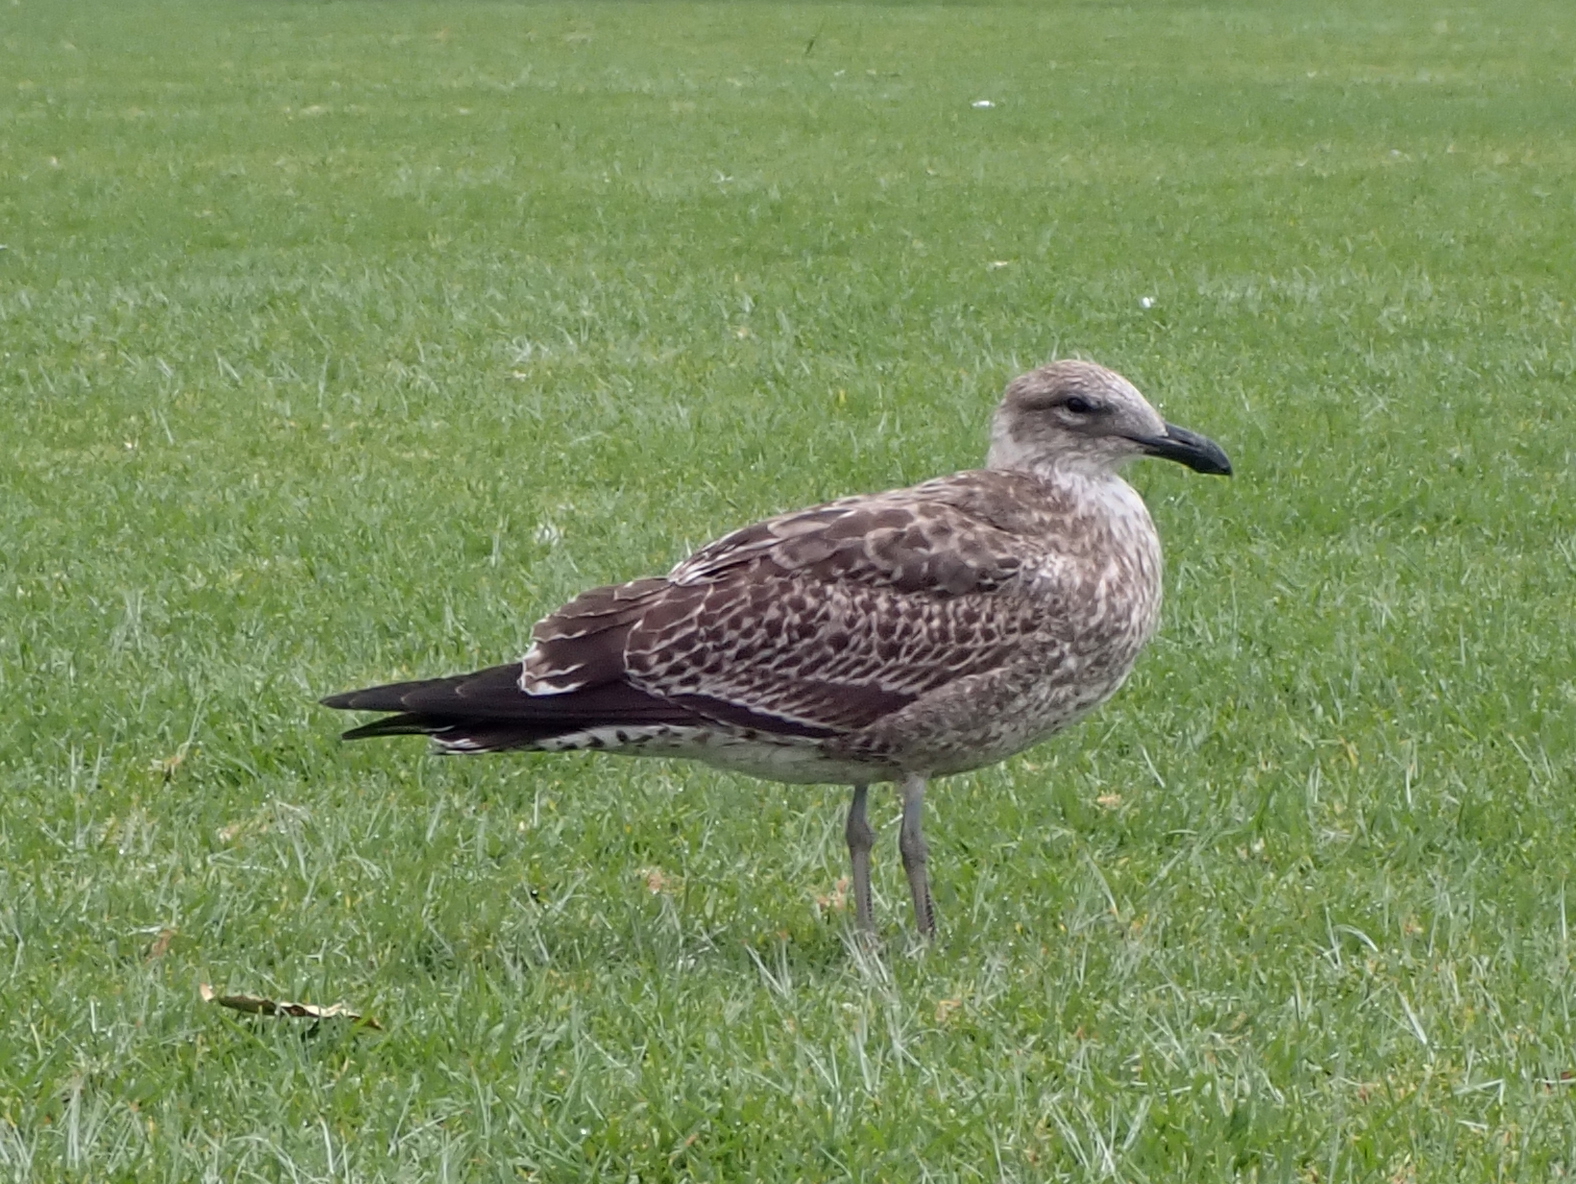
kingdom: Animalia
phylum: Chordata
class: Aves
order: Charadriiformes
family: Laridae
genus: Larus
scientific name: Larus dominicanus
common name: Kelp gull
